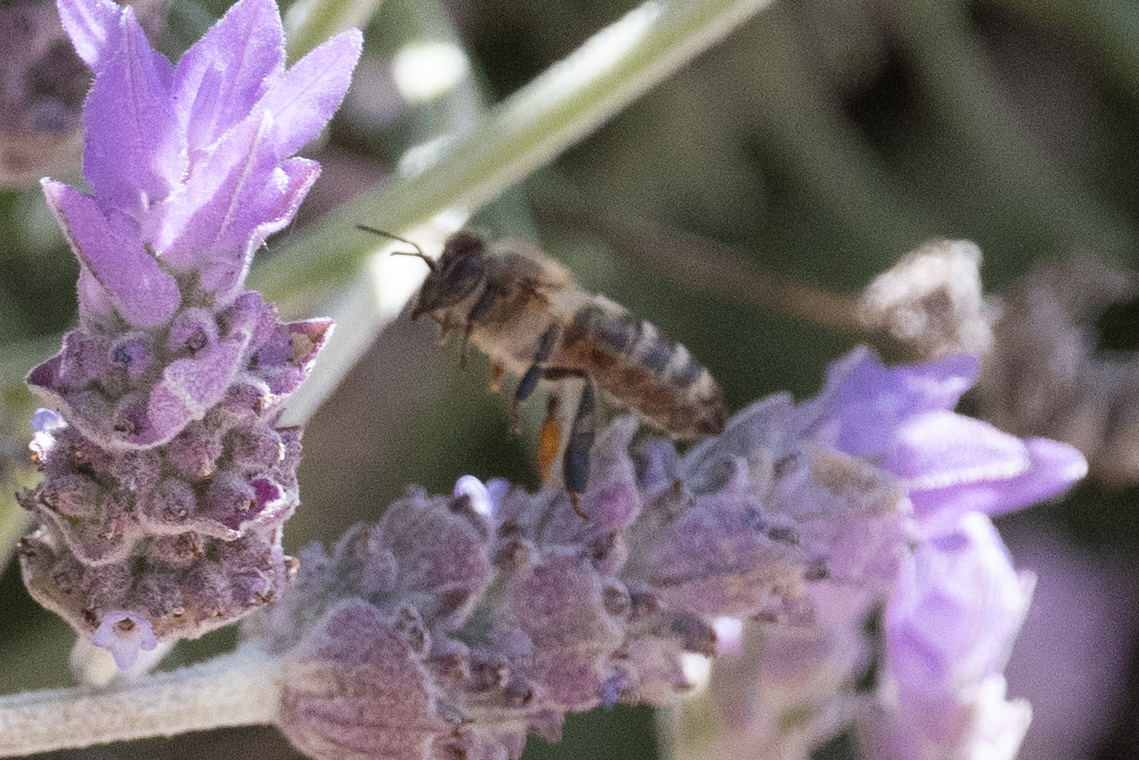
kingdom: Animalia
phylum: Arthropoda
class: Insecta
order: Hymenoptera
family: Apidae
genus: Apis
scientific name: Apis mellifera
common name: Honey bee
